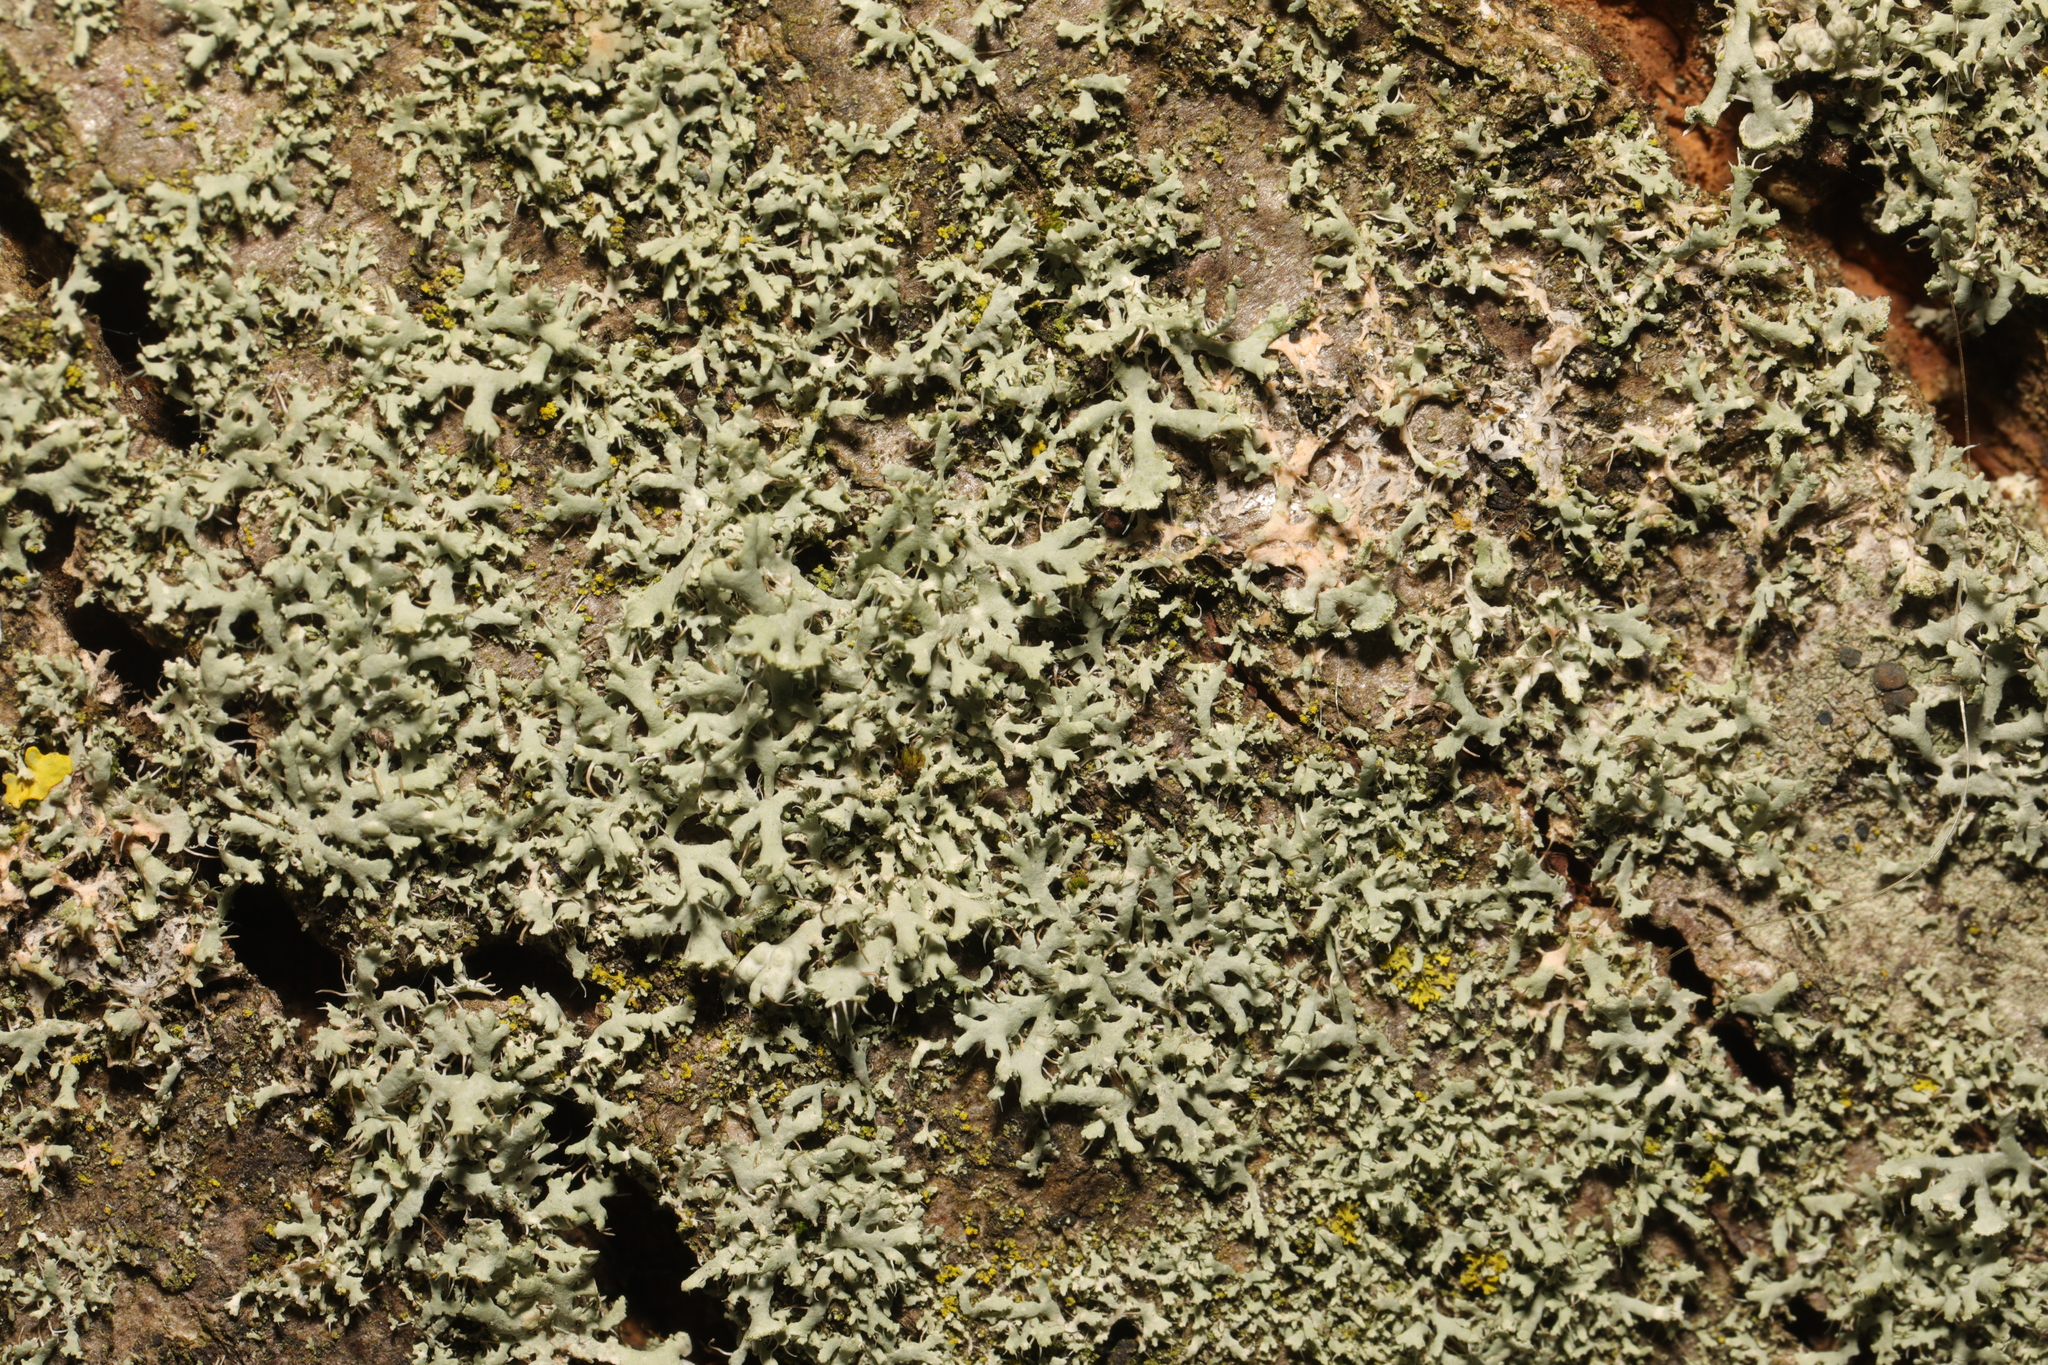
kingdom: Fungi
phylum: Ascomycota
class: Lecanoromycetes
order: Caliciales
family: Physciaceae
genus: Physcia
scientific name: Physcia tenella
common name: Fringed rosette lichen
